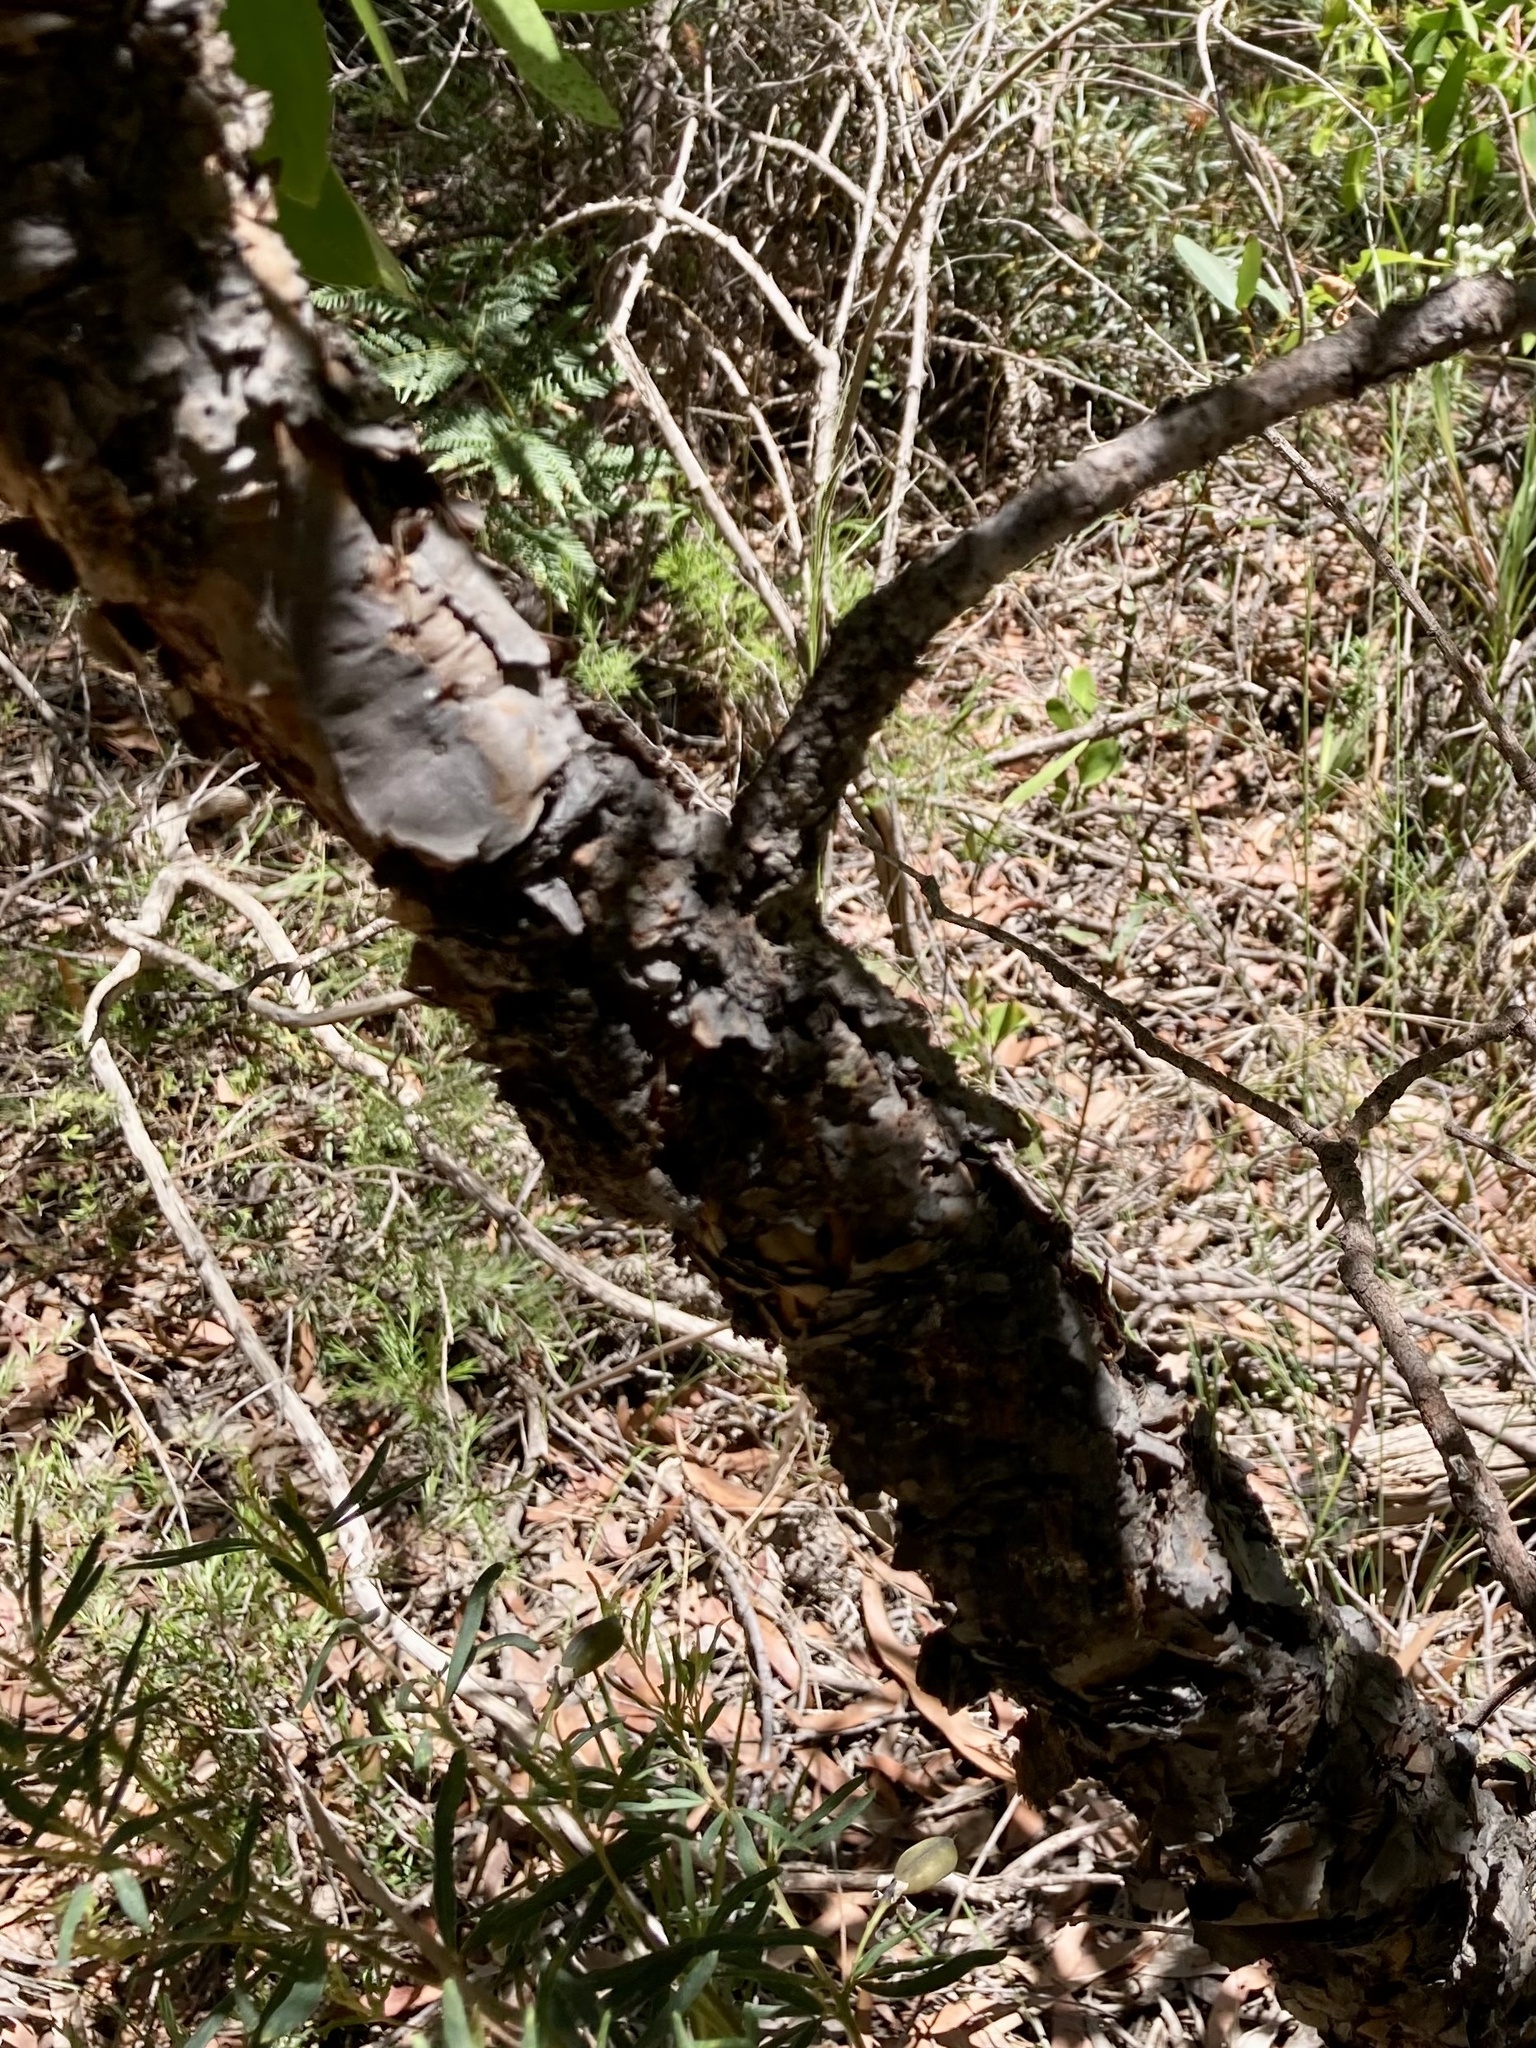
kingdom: Plantae
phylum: Tracheophyta
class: Magnoliopsida
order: Proteales
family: Proteaceae
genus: Persoonia
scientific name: Persoonia levis
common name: Smooth geebung
